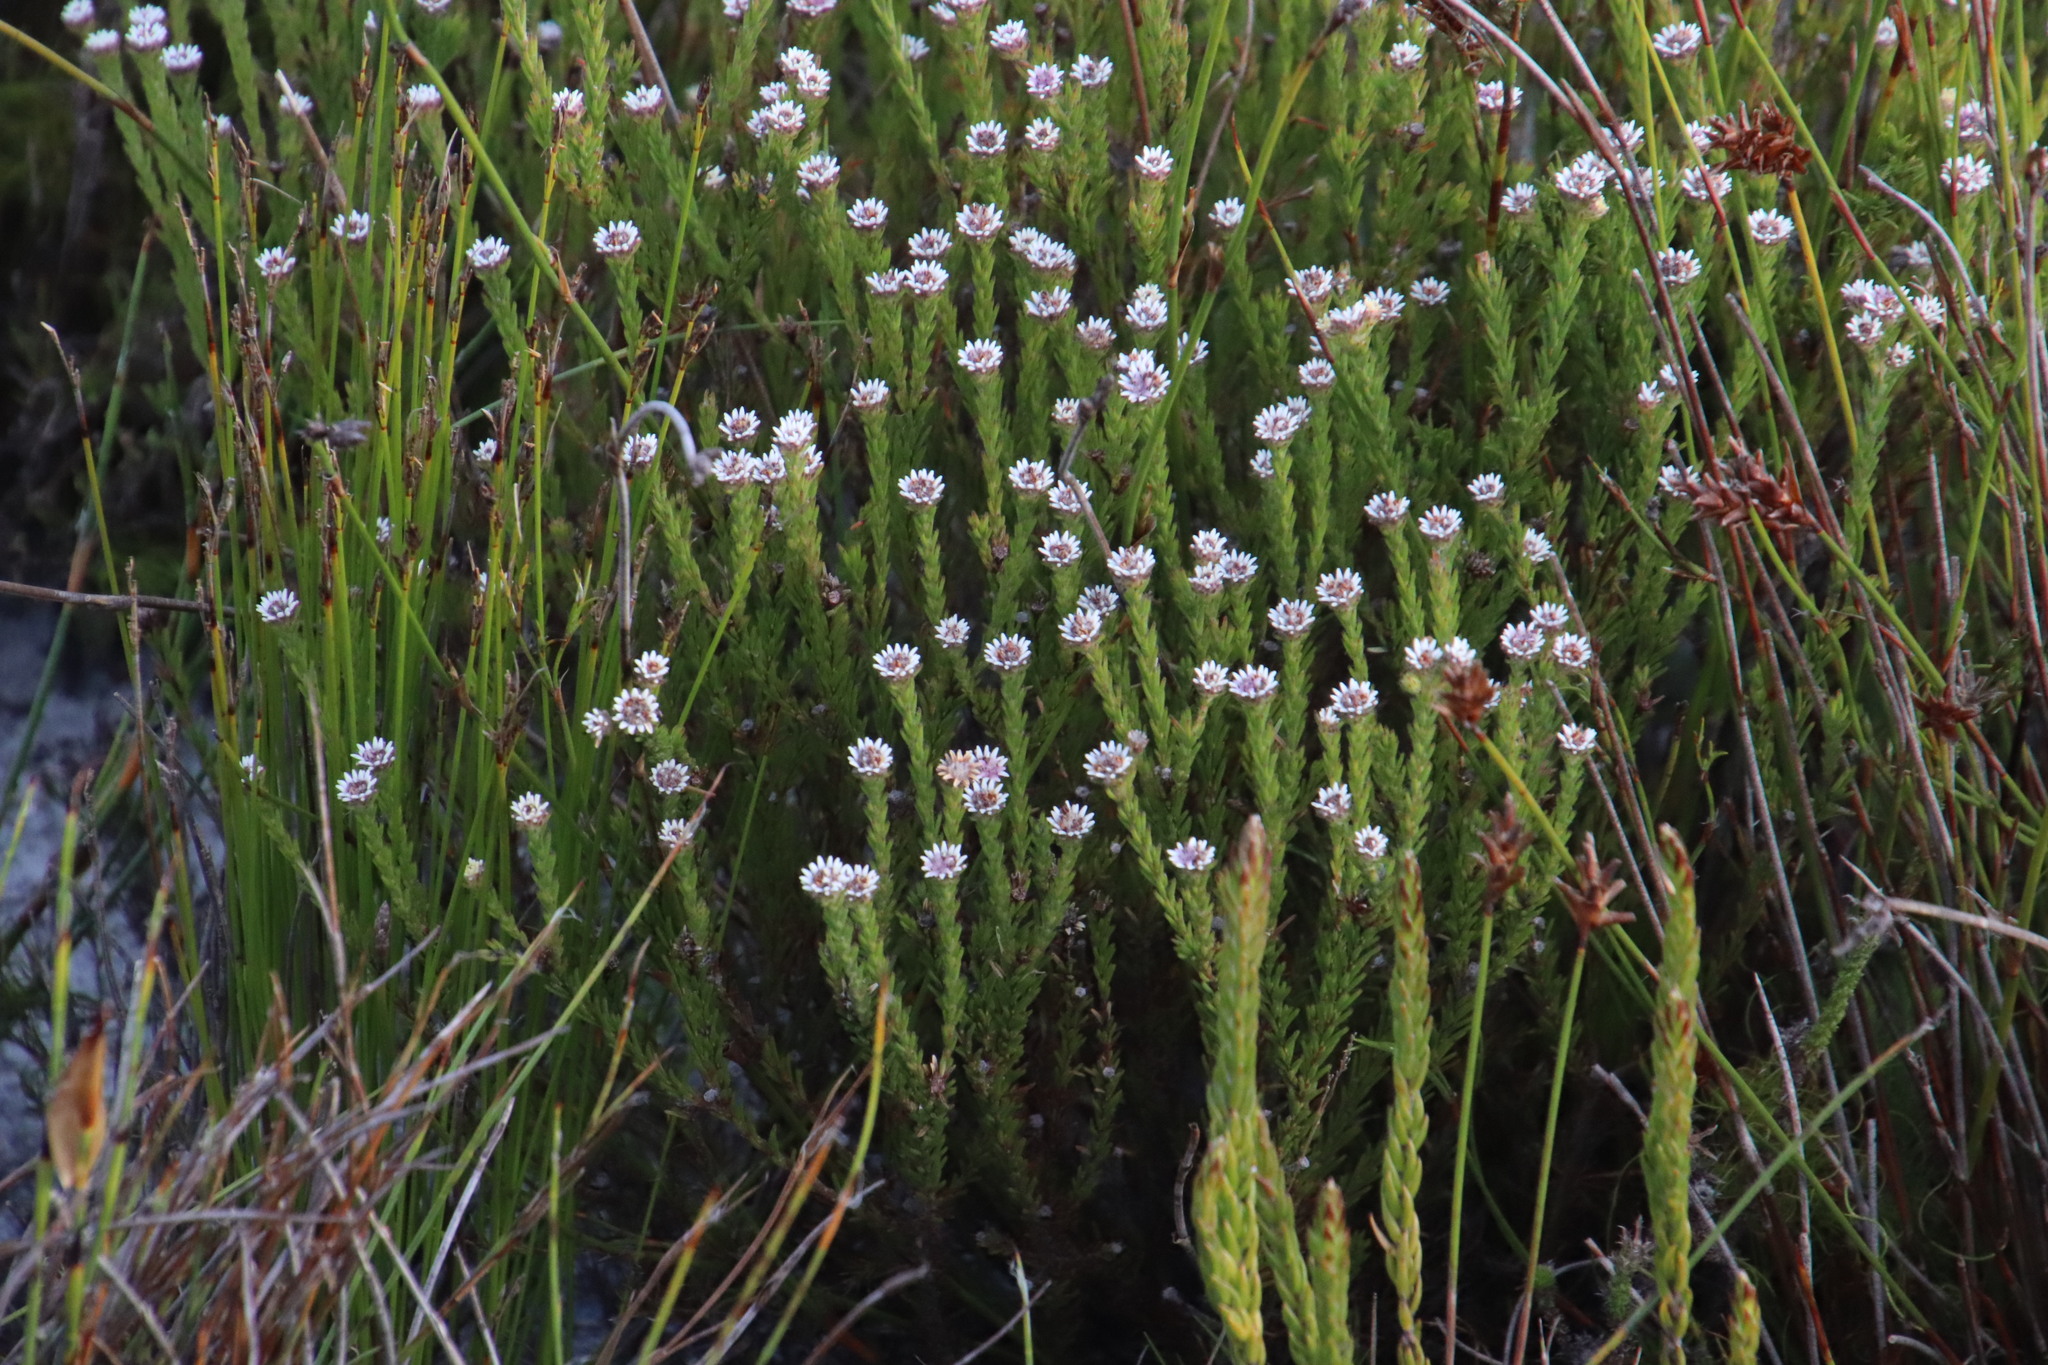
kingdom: Plantae
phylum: Tracheophyta
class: Magnoliopsida
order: Bruniales
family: Bruniaceae
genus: Staavia
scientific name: Staavia radiata
